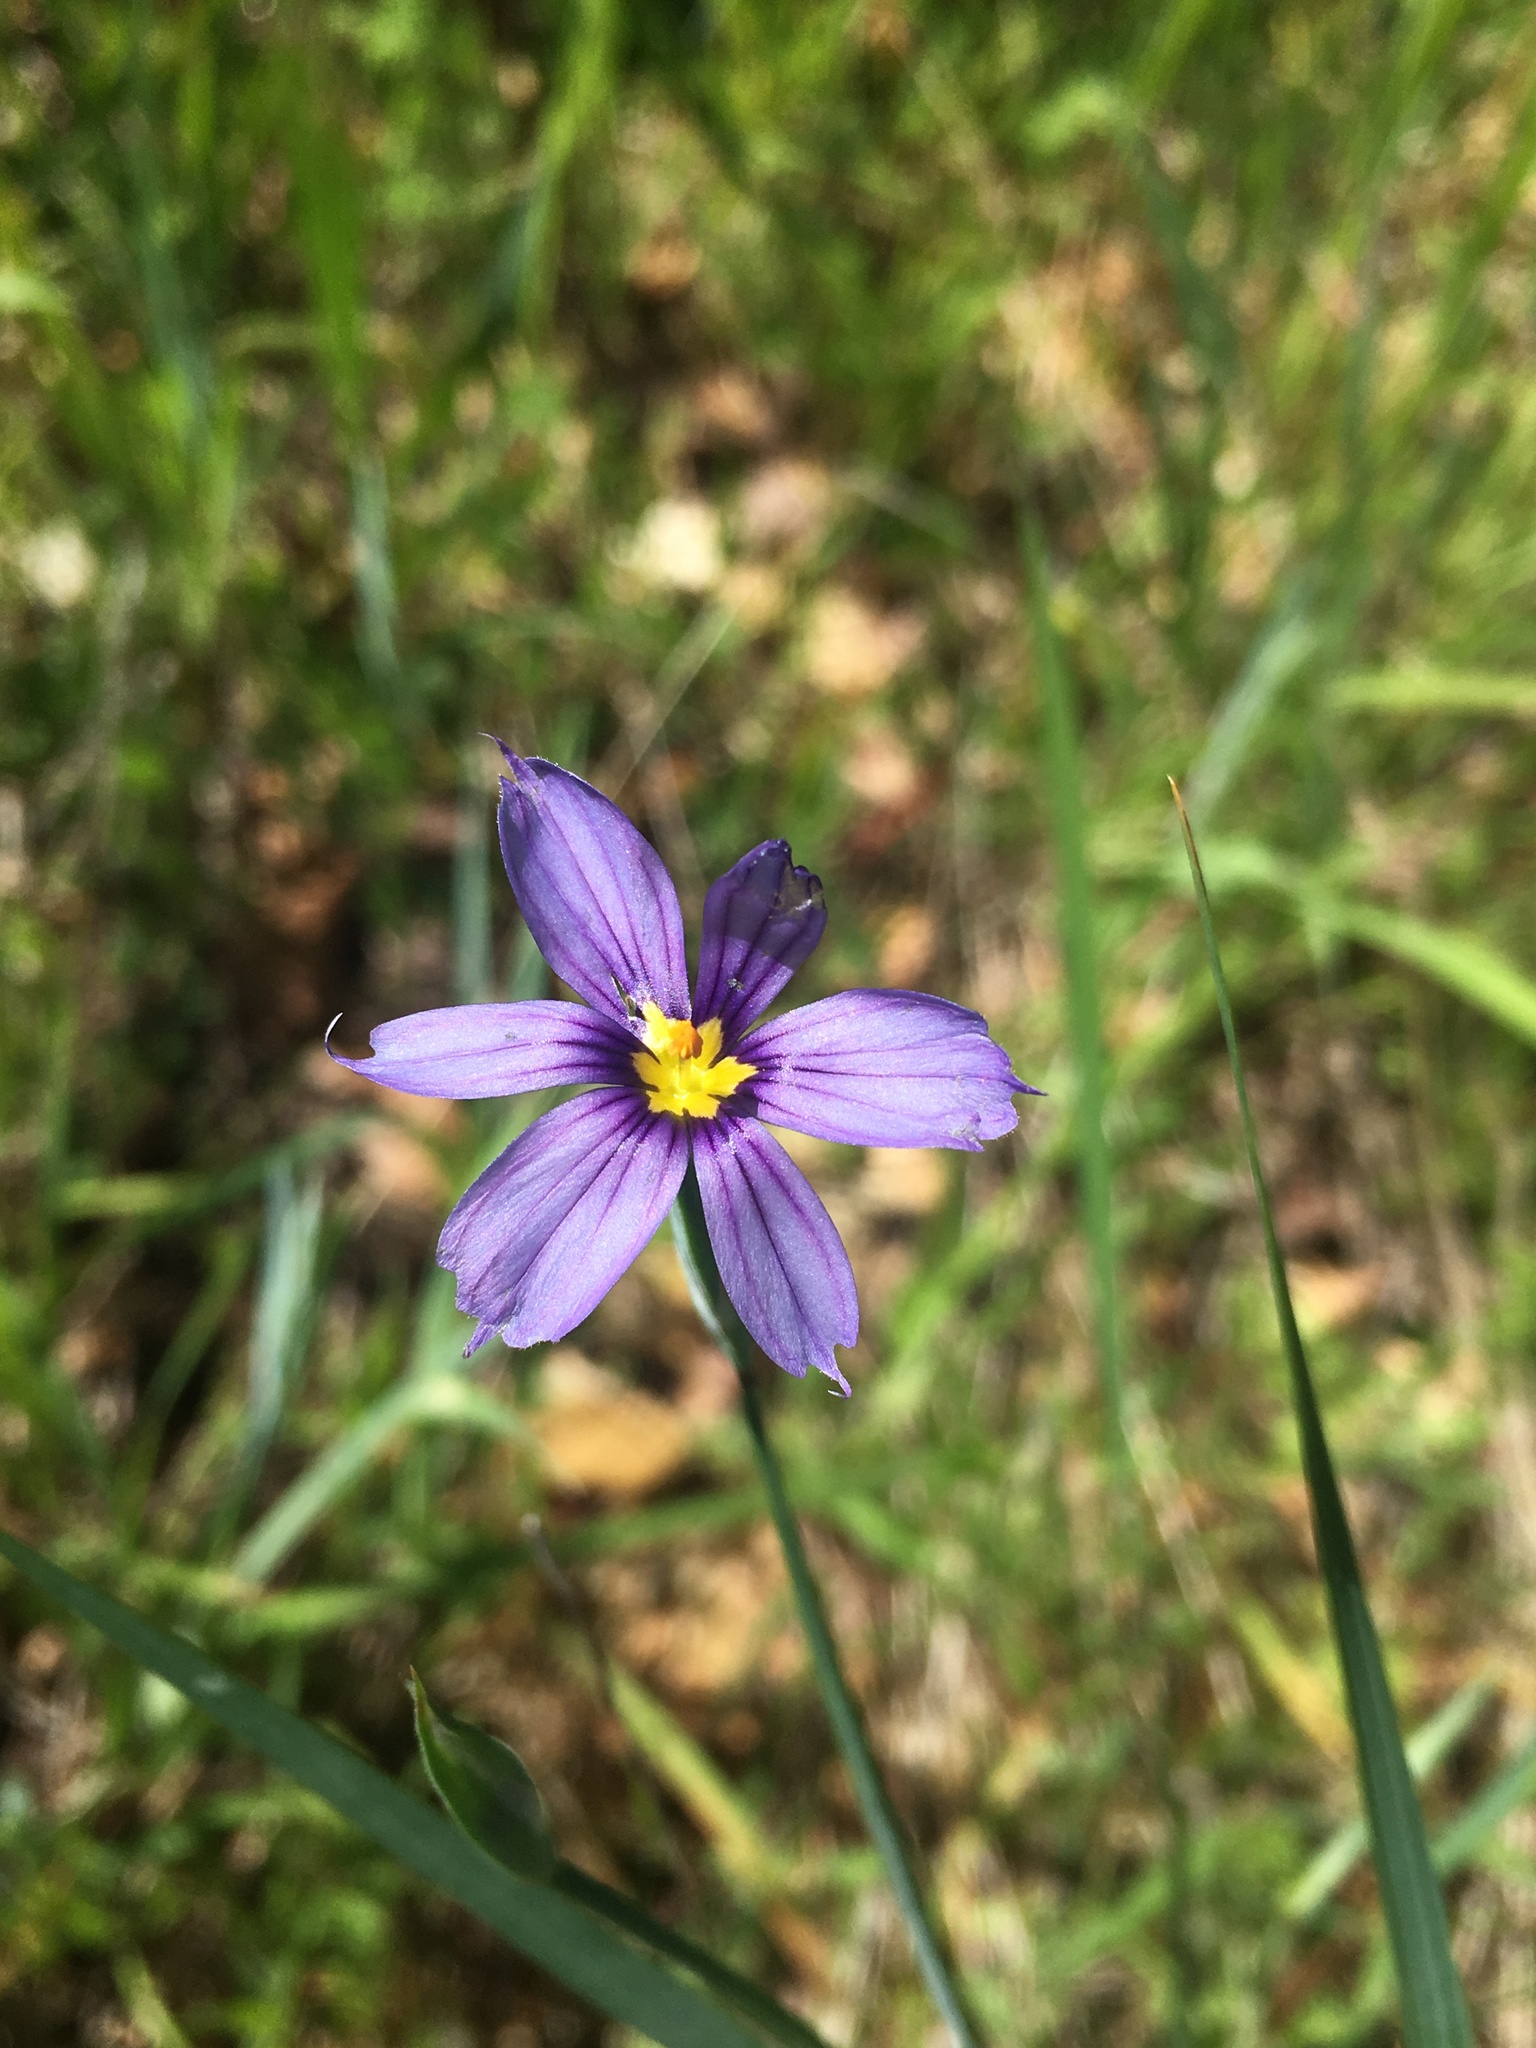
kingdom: Plantae
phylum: Tracheophyta
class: Liliopsida
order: Asparagales
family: Iridaceae
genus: Sisyrinchium
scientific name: Sisyrinchium bellum
